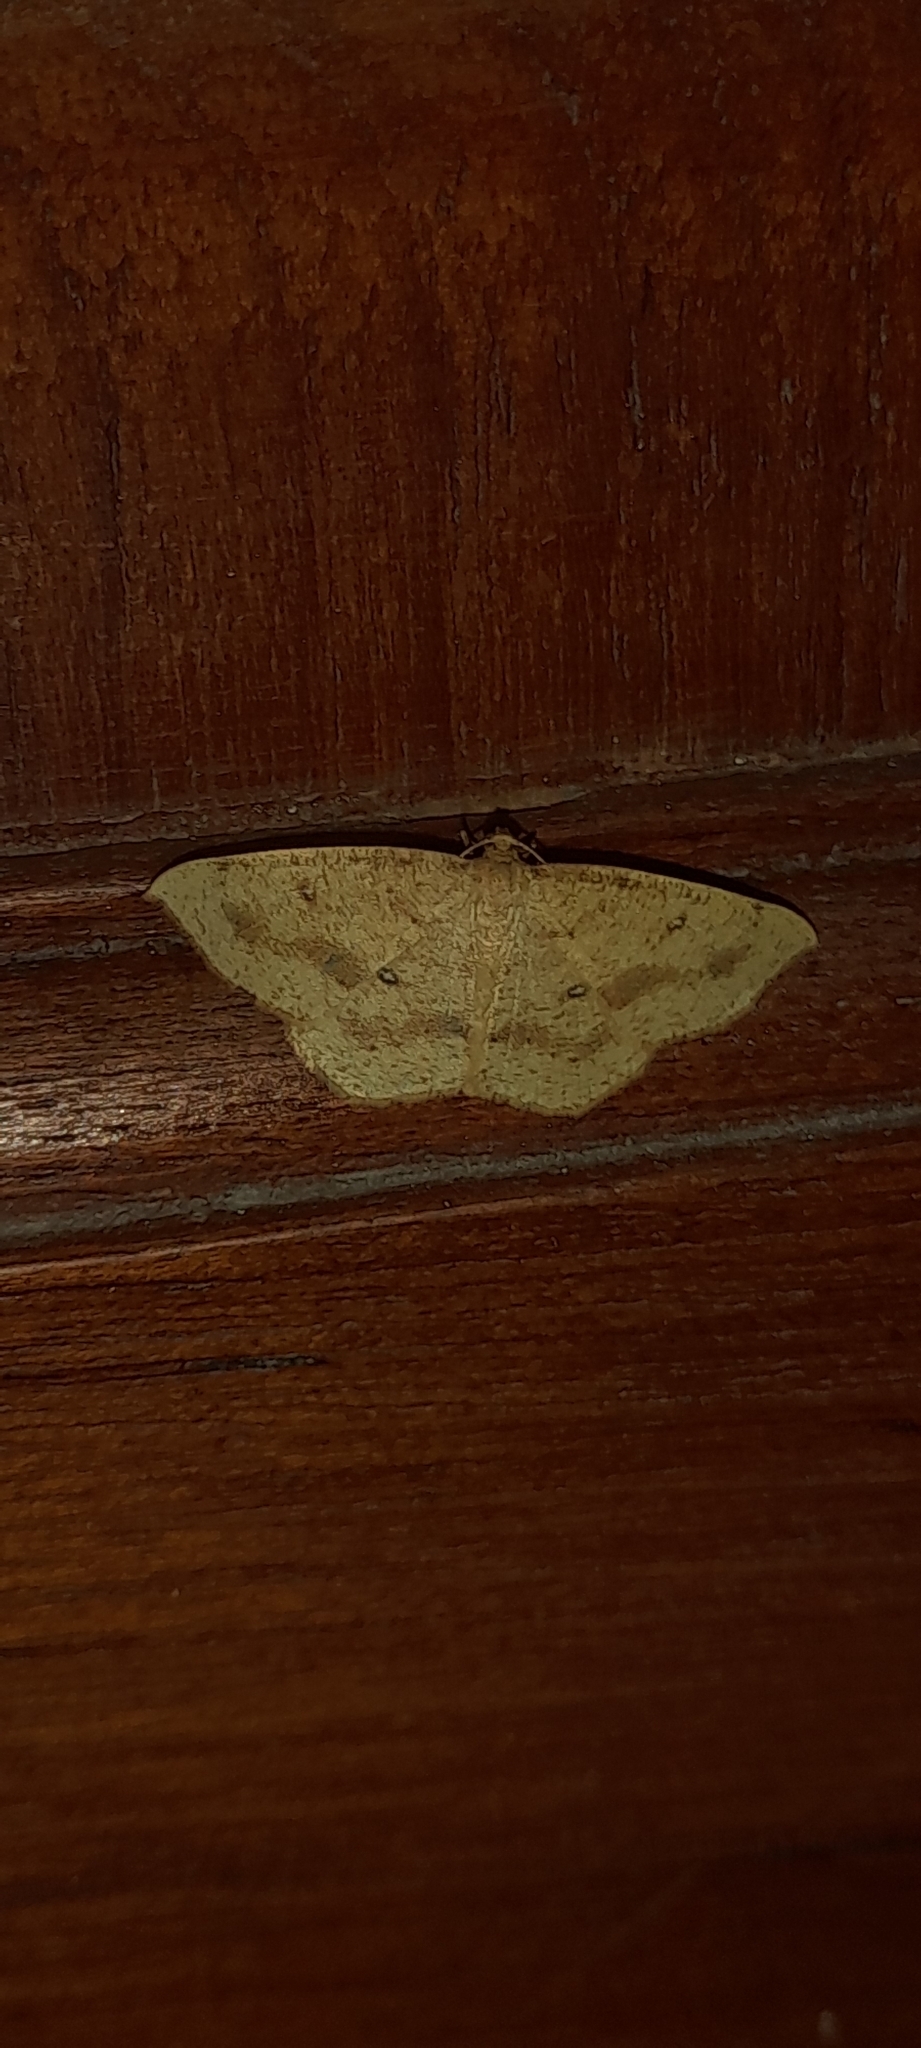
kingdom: Animalia
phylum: Arthropoda
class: Insecta
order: Lepidoptera
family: Geometridae
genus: Palaeaspilates
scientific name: Palaeaspilates Anisephyra ocularia
